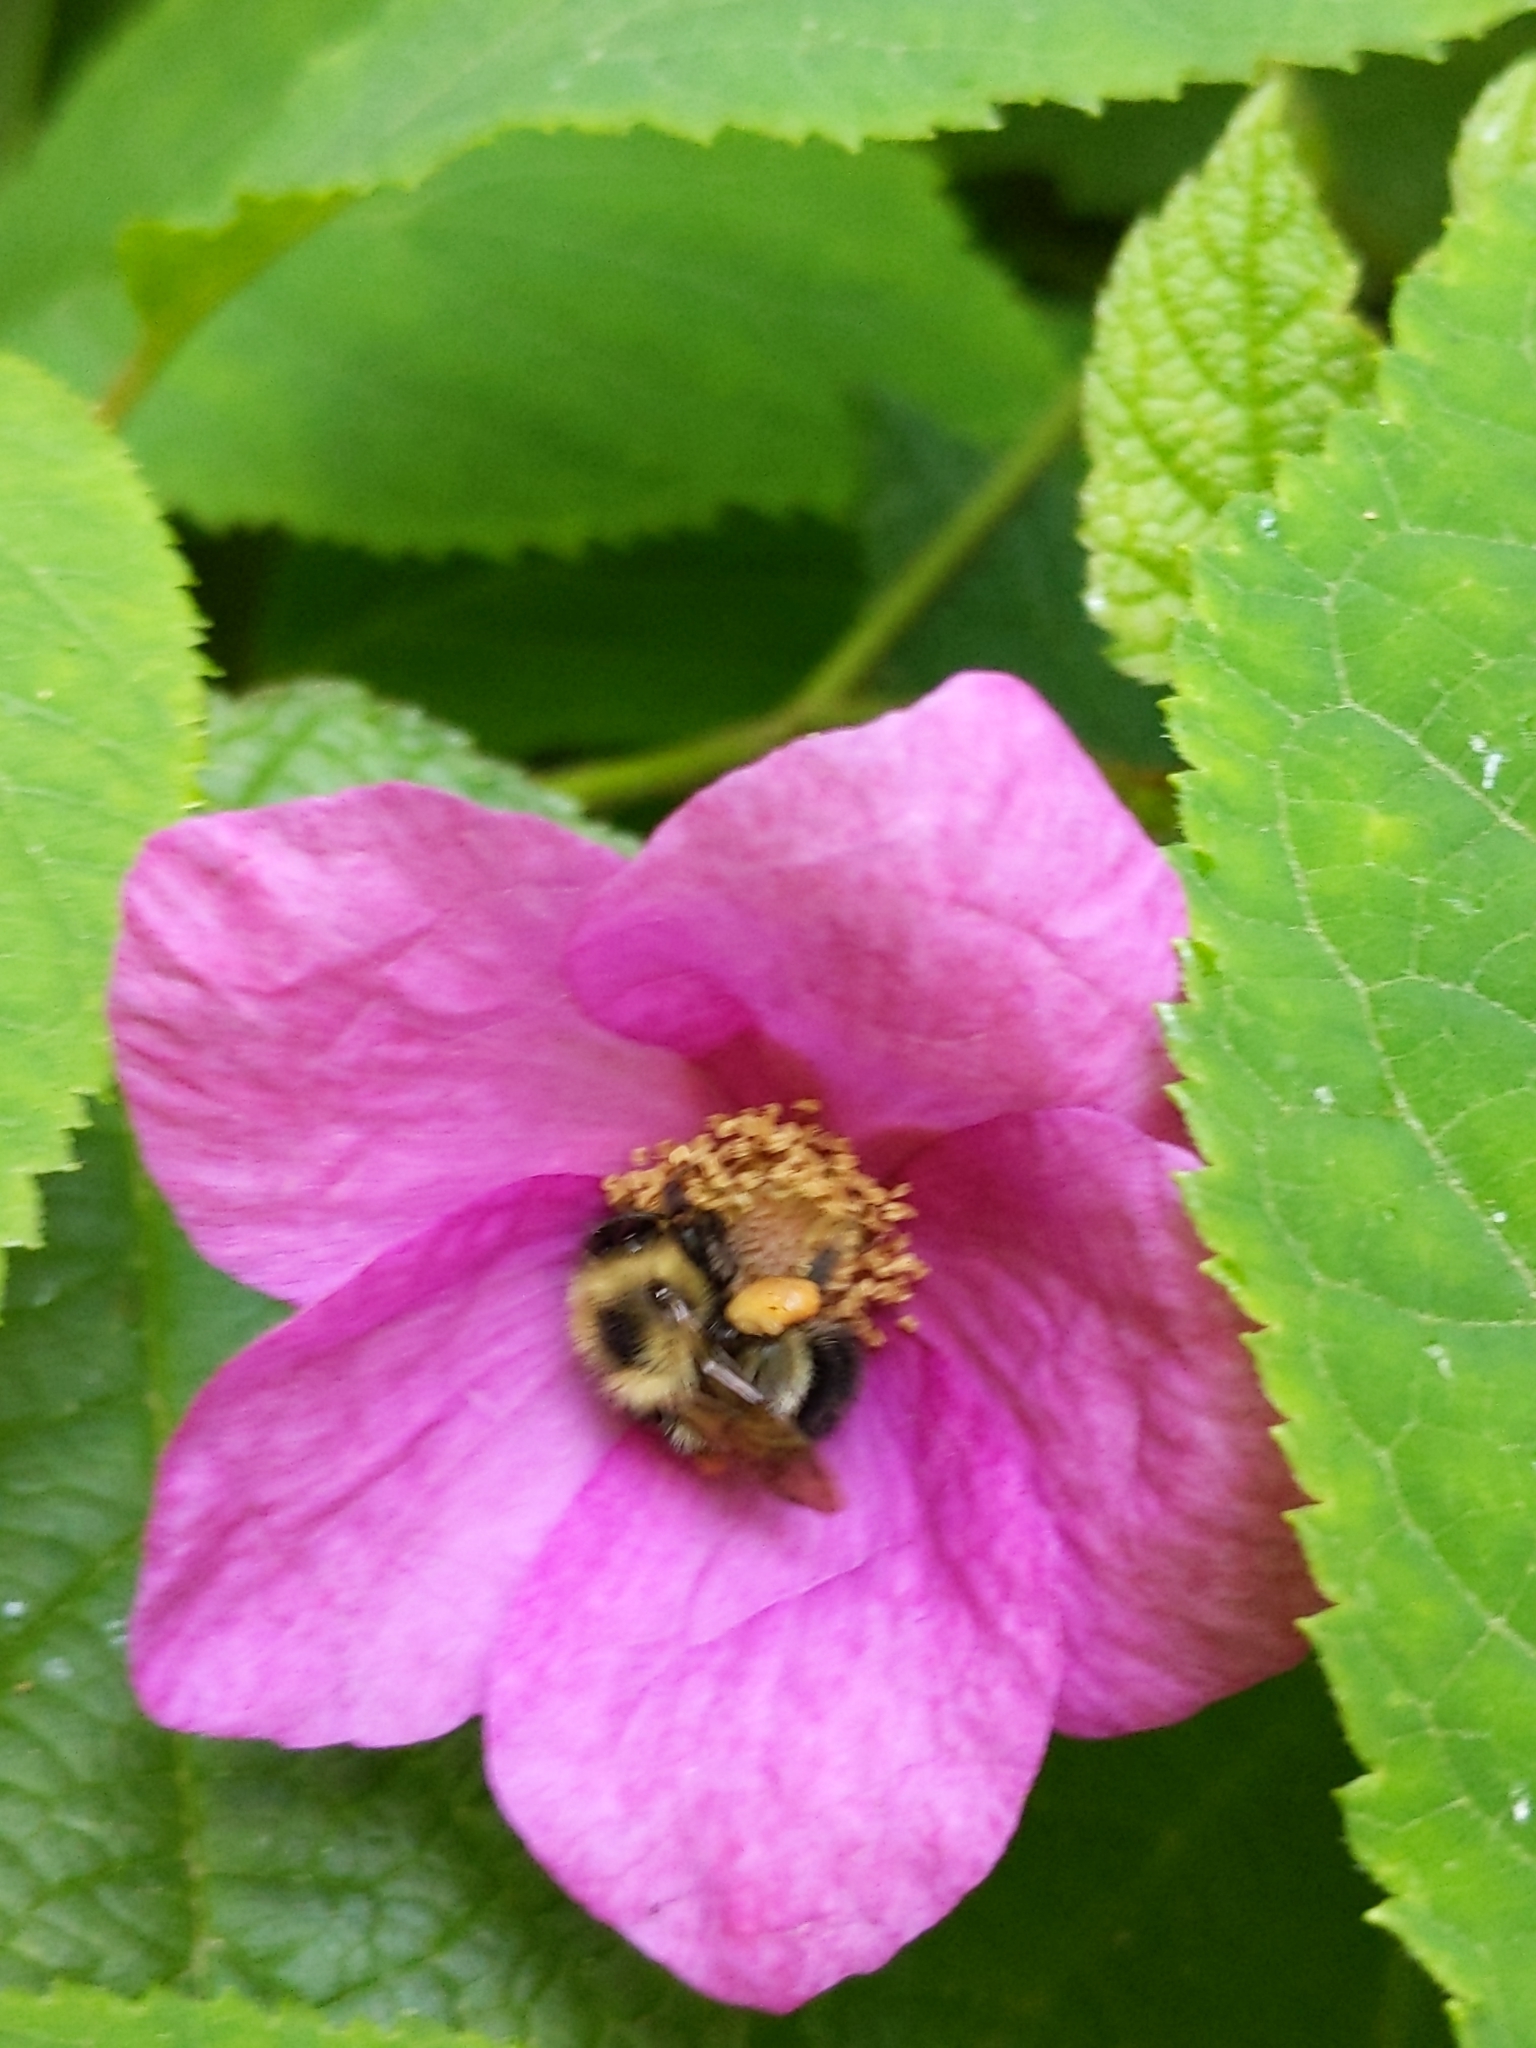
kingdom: Animalia
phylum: Arthropoda
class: Insecta
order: Hymenoptera
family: Apidae
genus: Pyrobombus
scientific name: Pyrobombus
